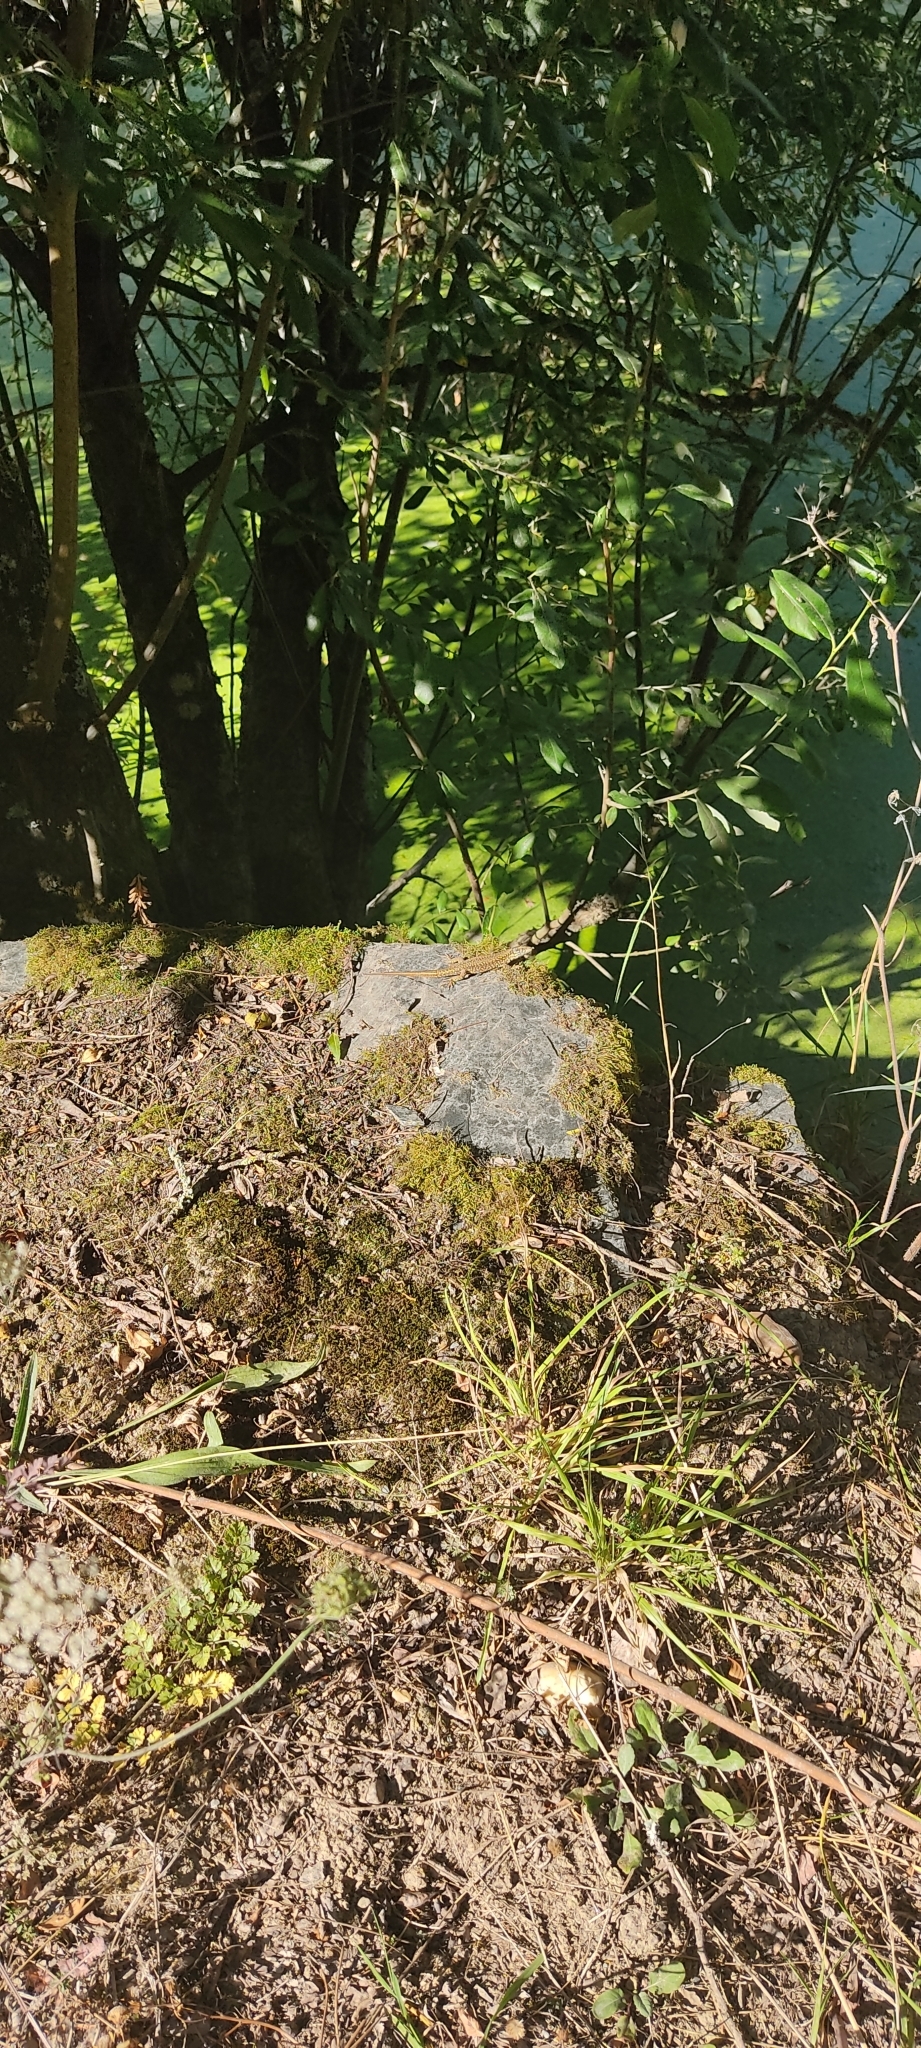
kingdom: Animalia
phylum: Chordata
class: Squamata
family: Lacertidae
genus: Podarcis
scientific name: Podarcis muralis
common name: Common wall lizard
